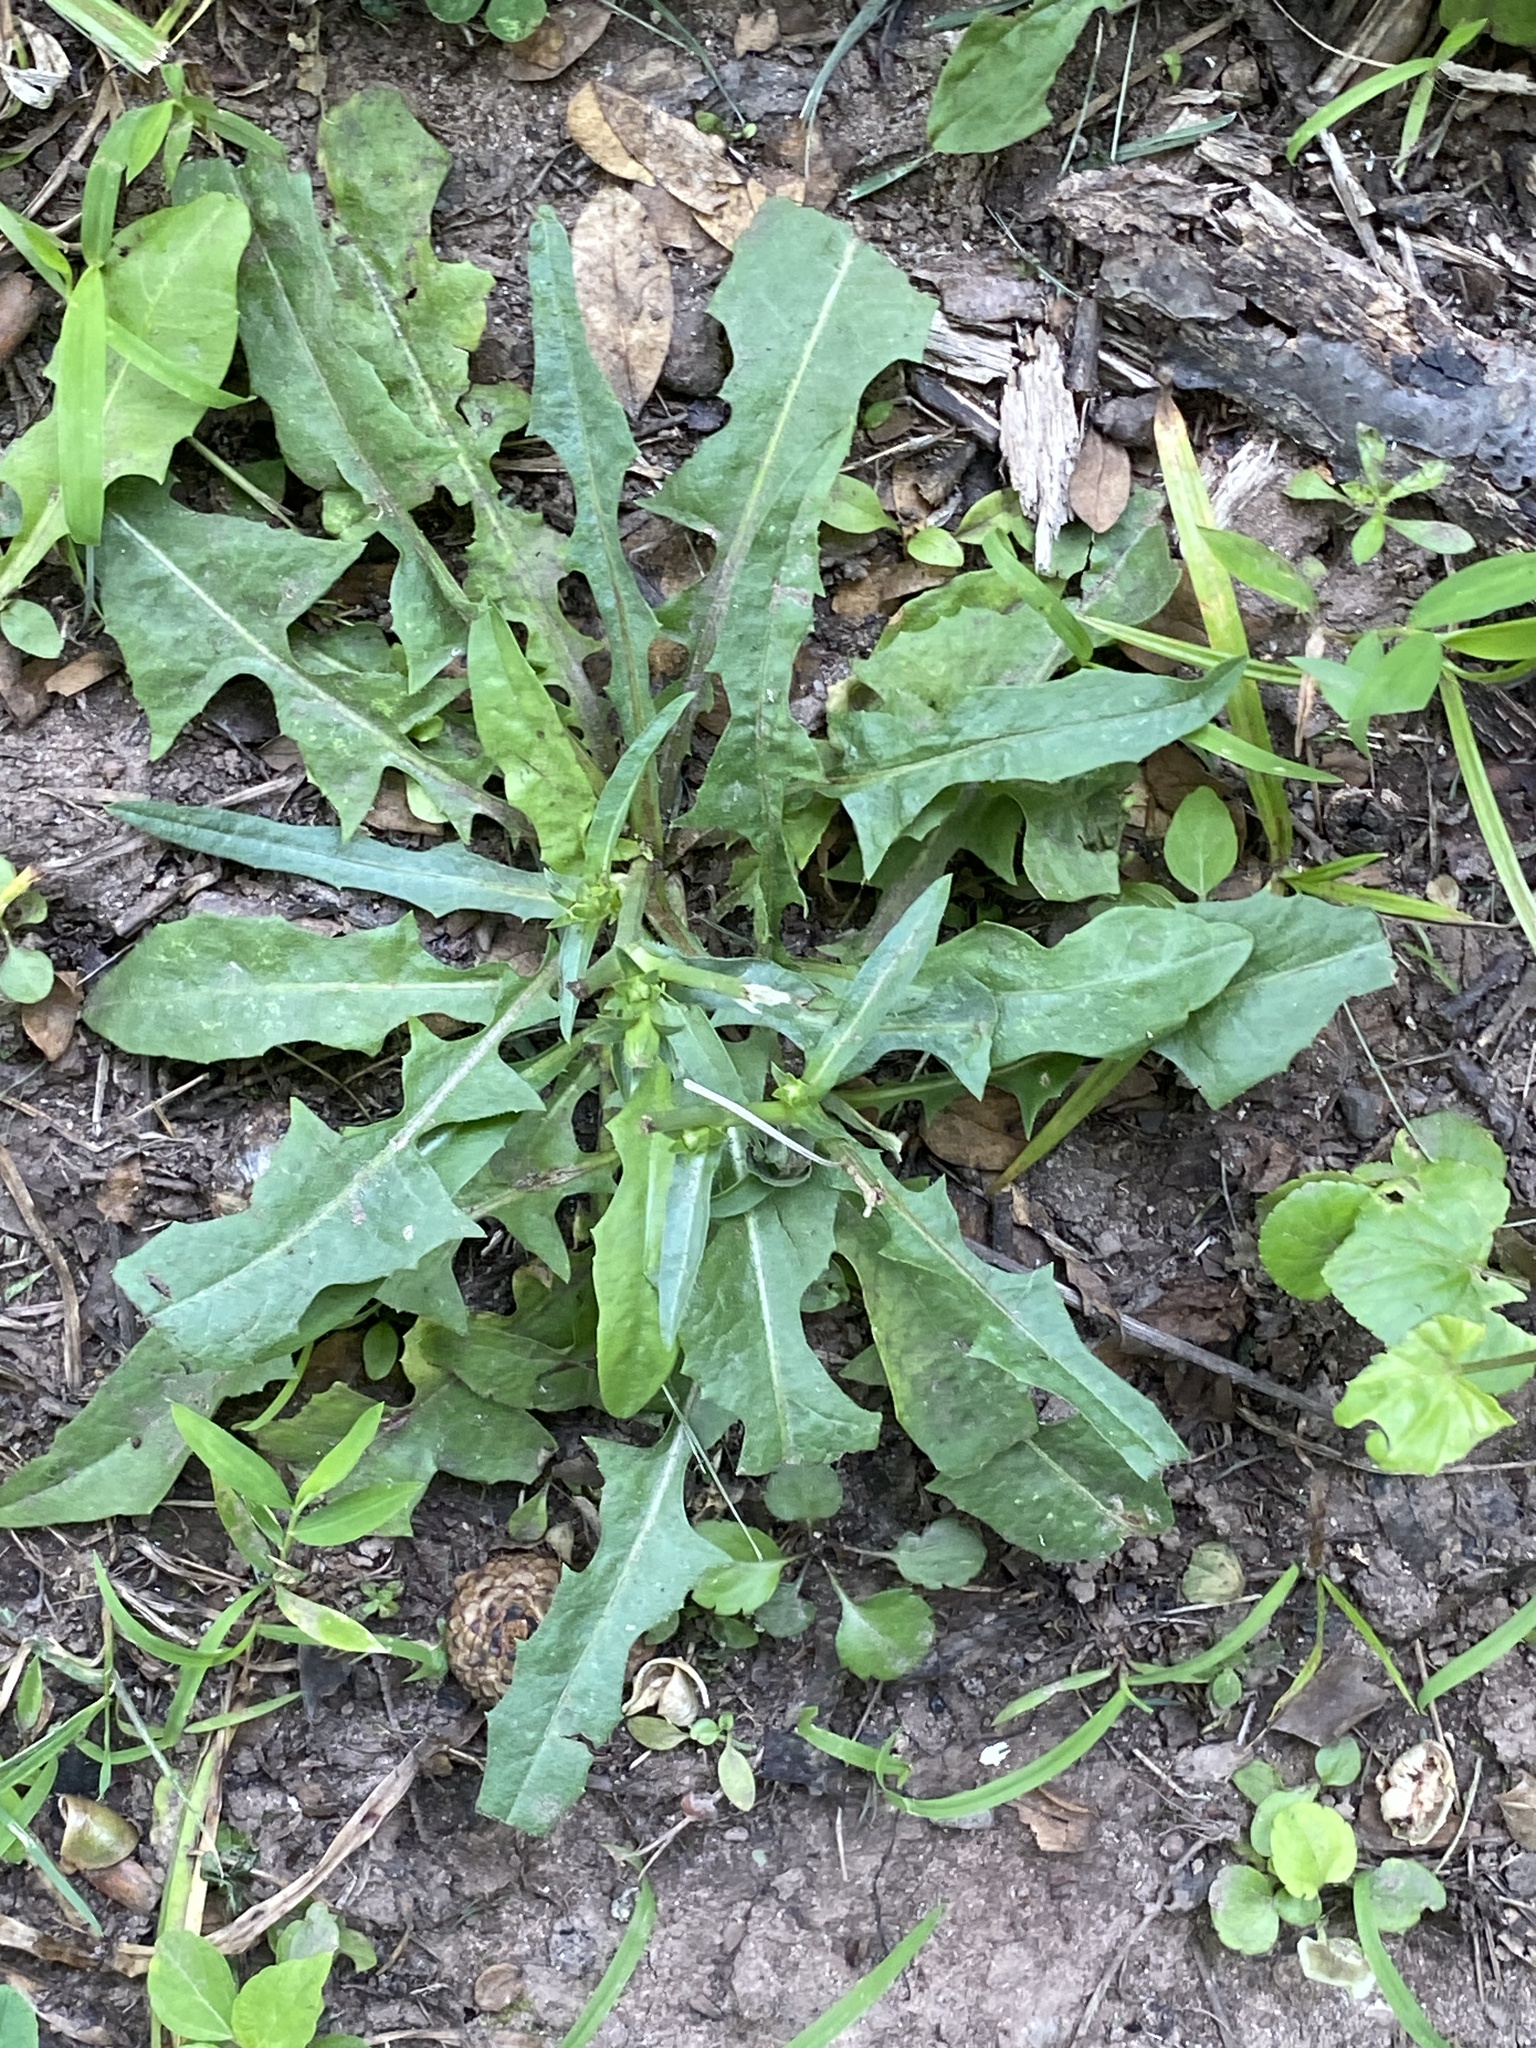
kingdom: Plantae
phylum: Tracheophyta
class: Magnoliopsida
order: Asterales
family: Asteraceae
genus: Cichorium
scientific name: Cichorium intybus
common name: Chicory
